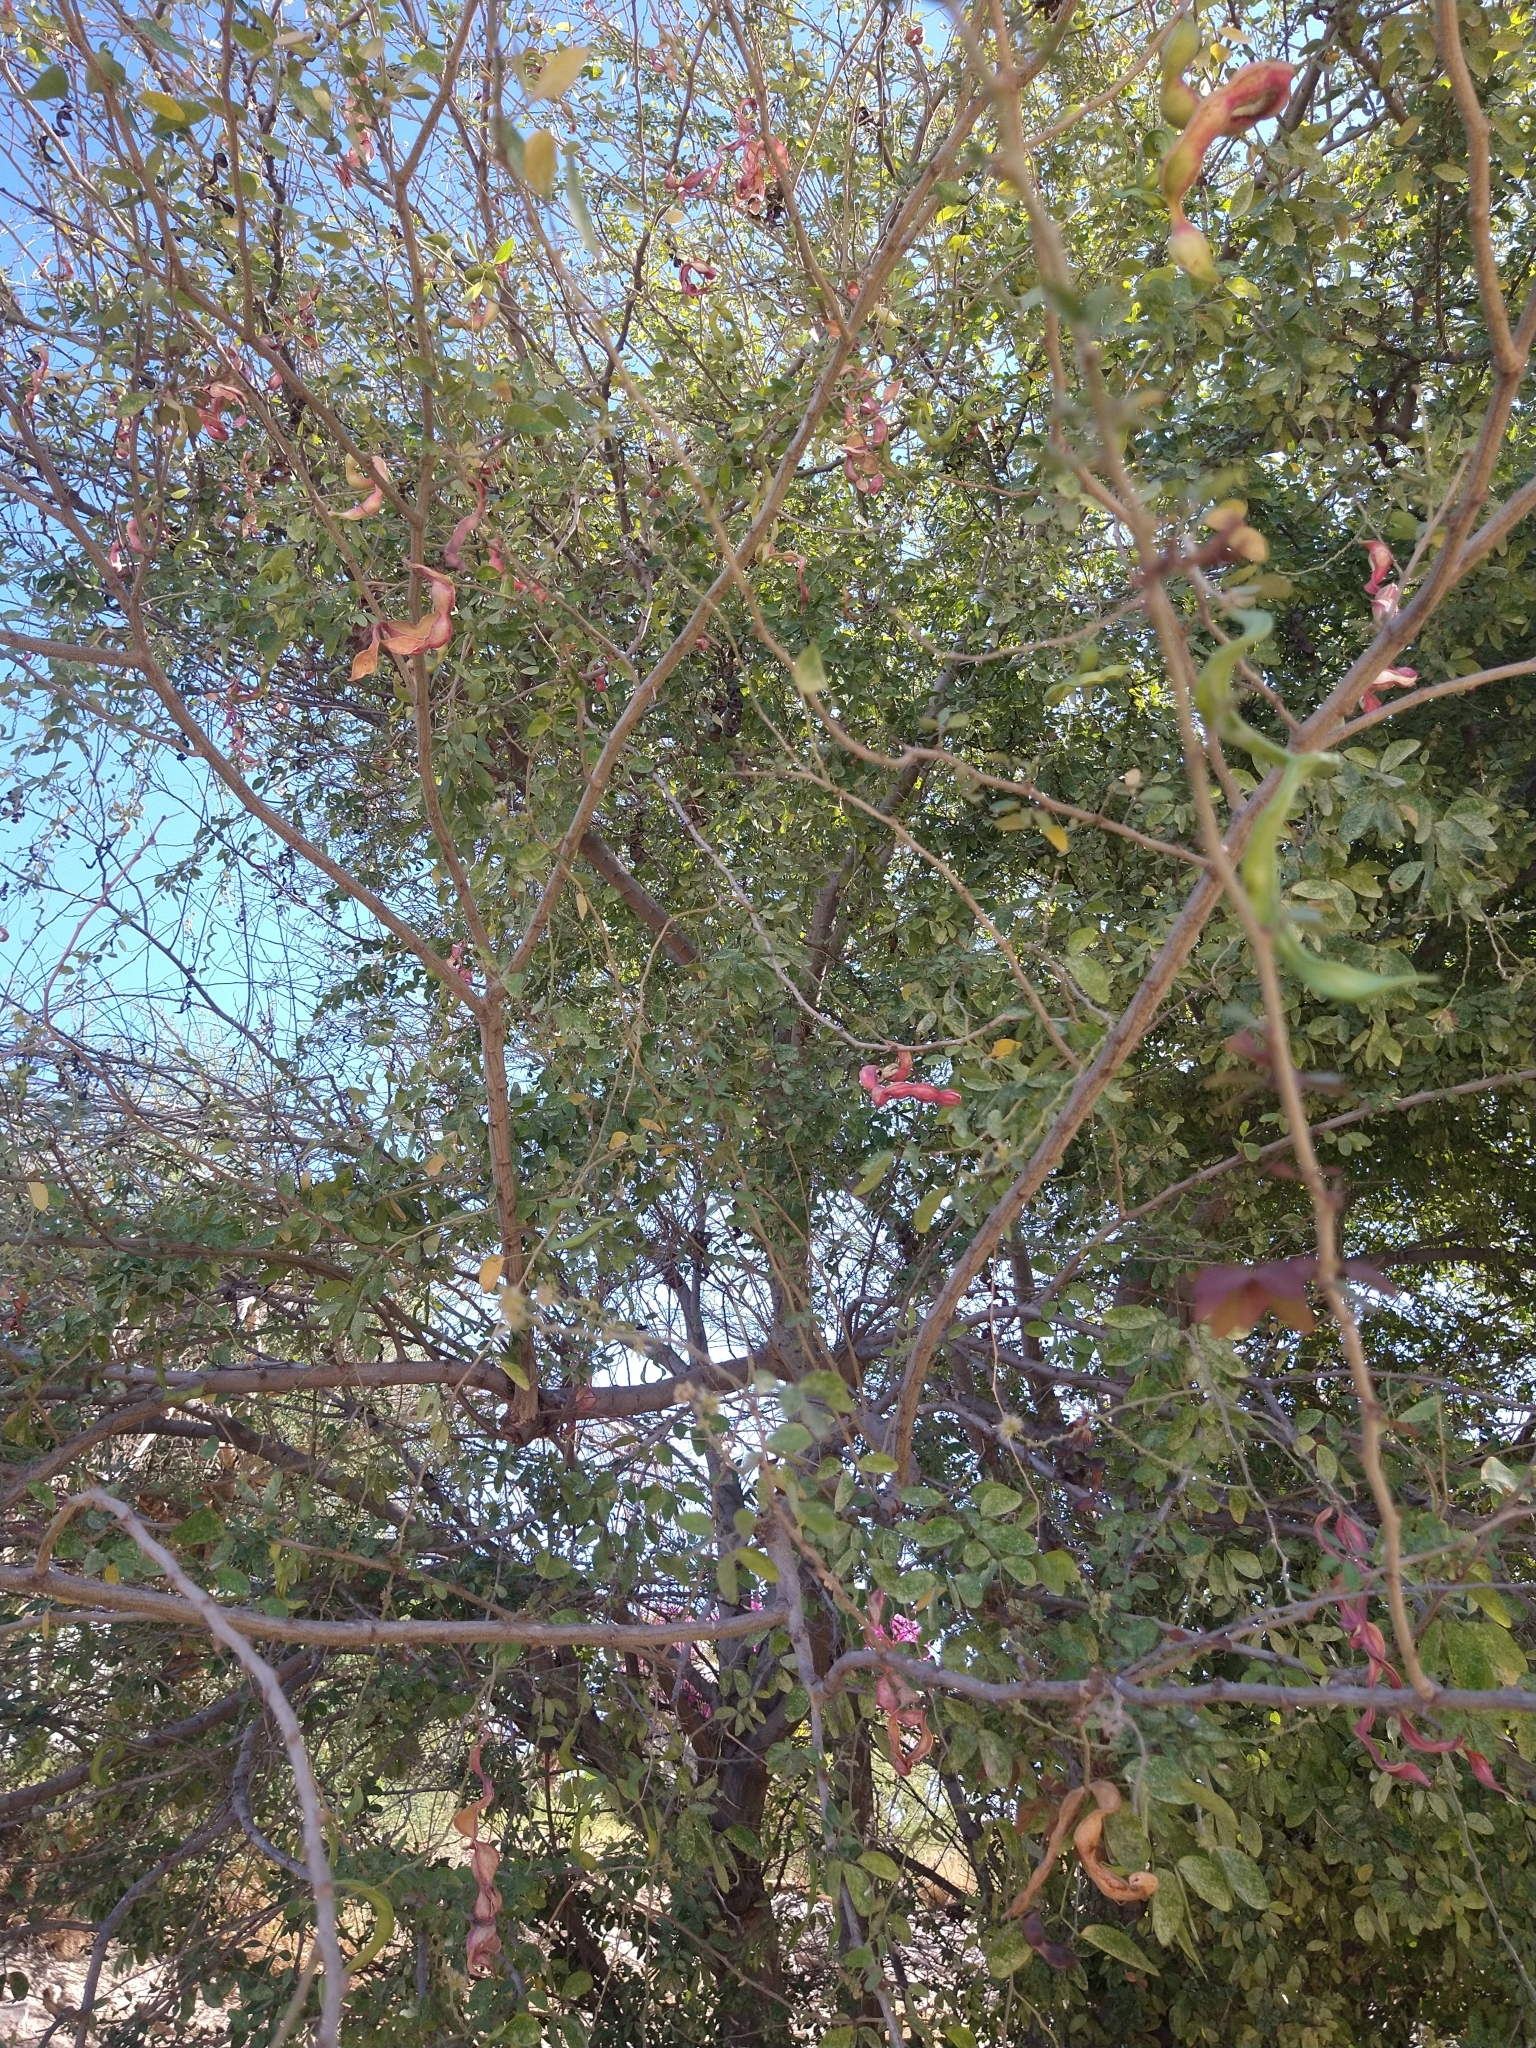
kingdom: Plantae
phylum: Tracheophyta
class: Magnoliopsida
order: Fabales
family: Fabaceae
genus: Pithecellobium
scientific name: Pithecellobium dulce
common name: Monkeypod
